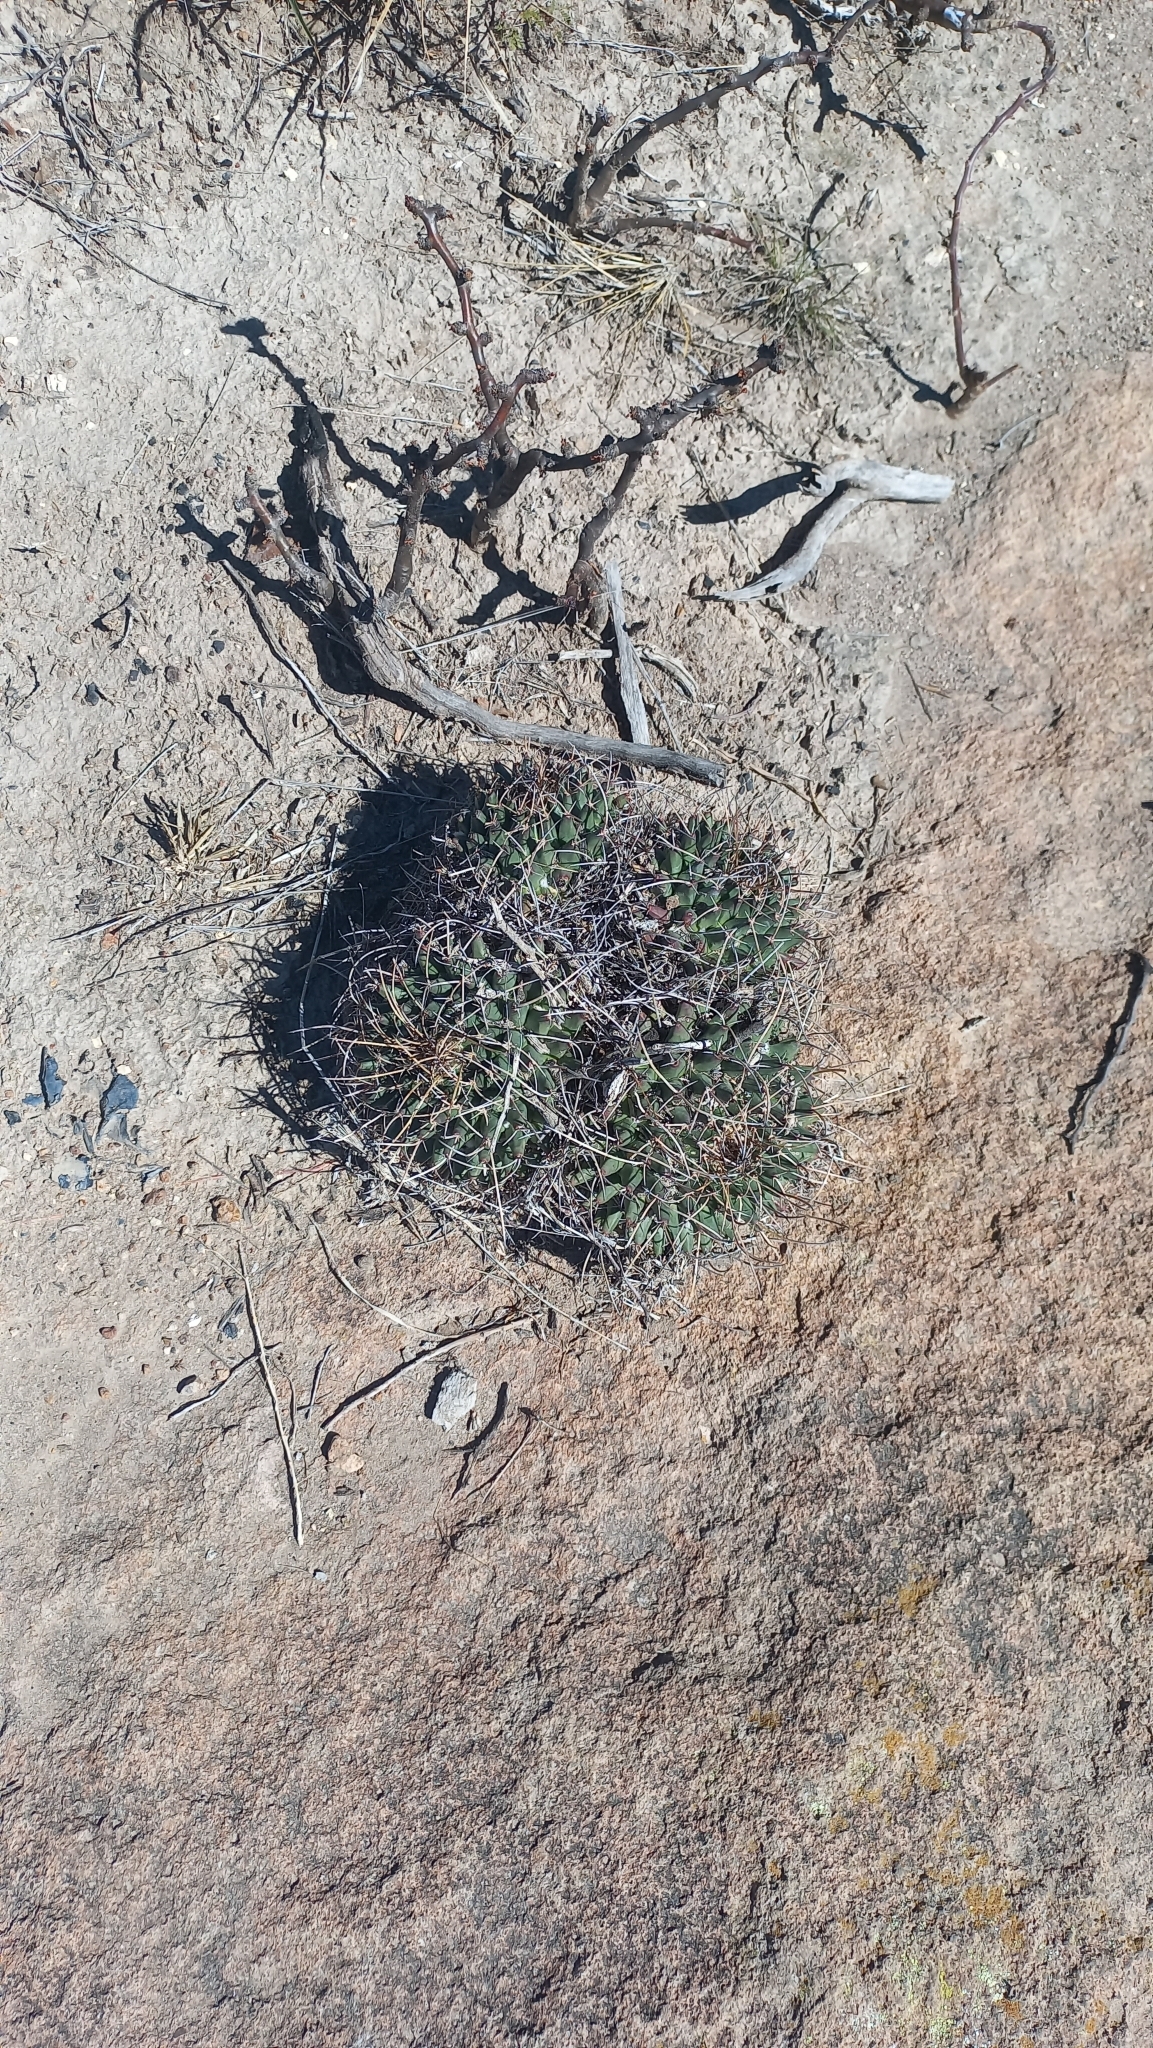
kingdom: Plantae
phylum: Tracheophyta
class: Magnoliopsida
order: Caryophyllales
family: Cactaceae
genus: Mammillaria
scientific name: Mammillaria magnimamma
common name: Mexican pincushion
